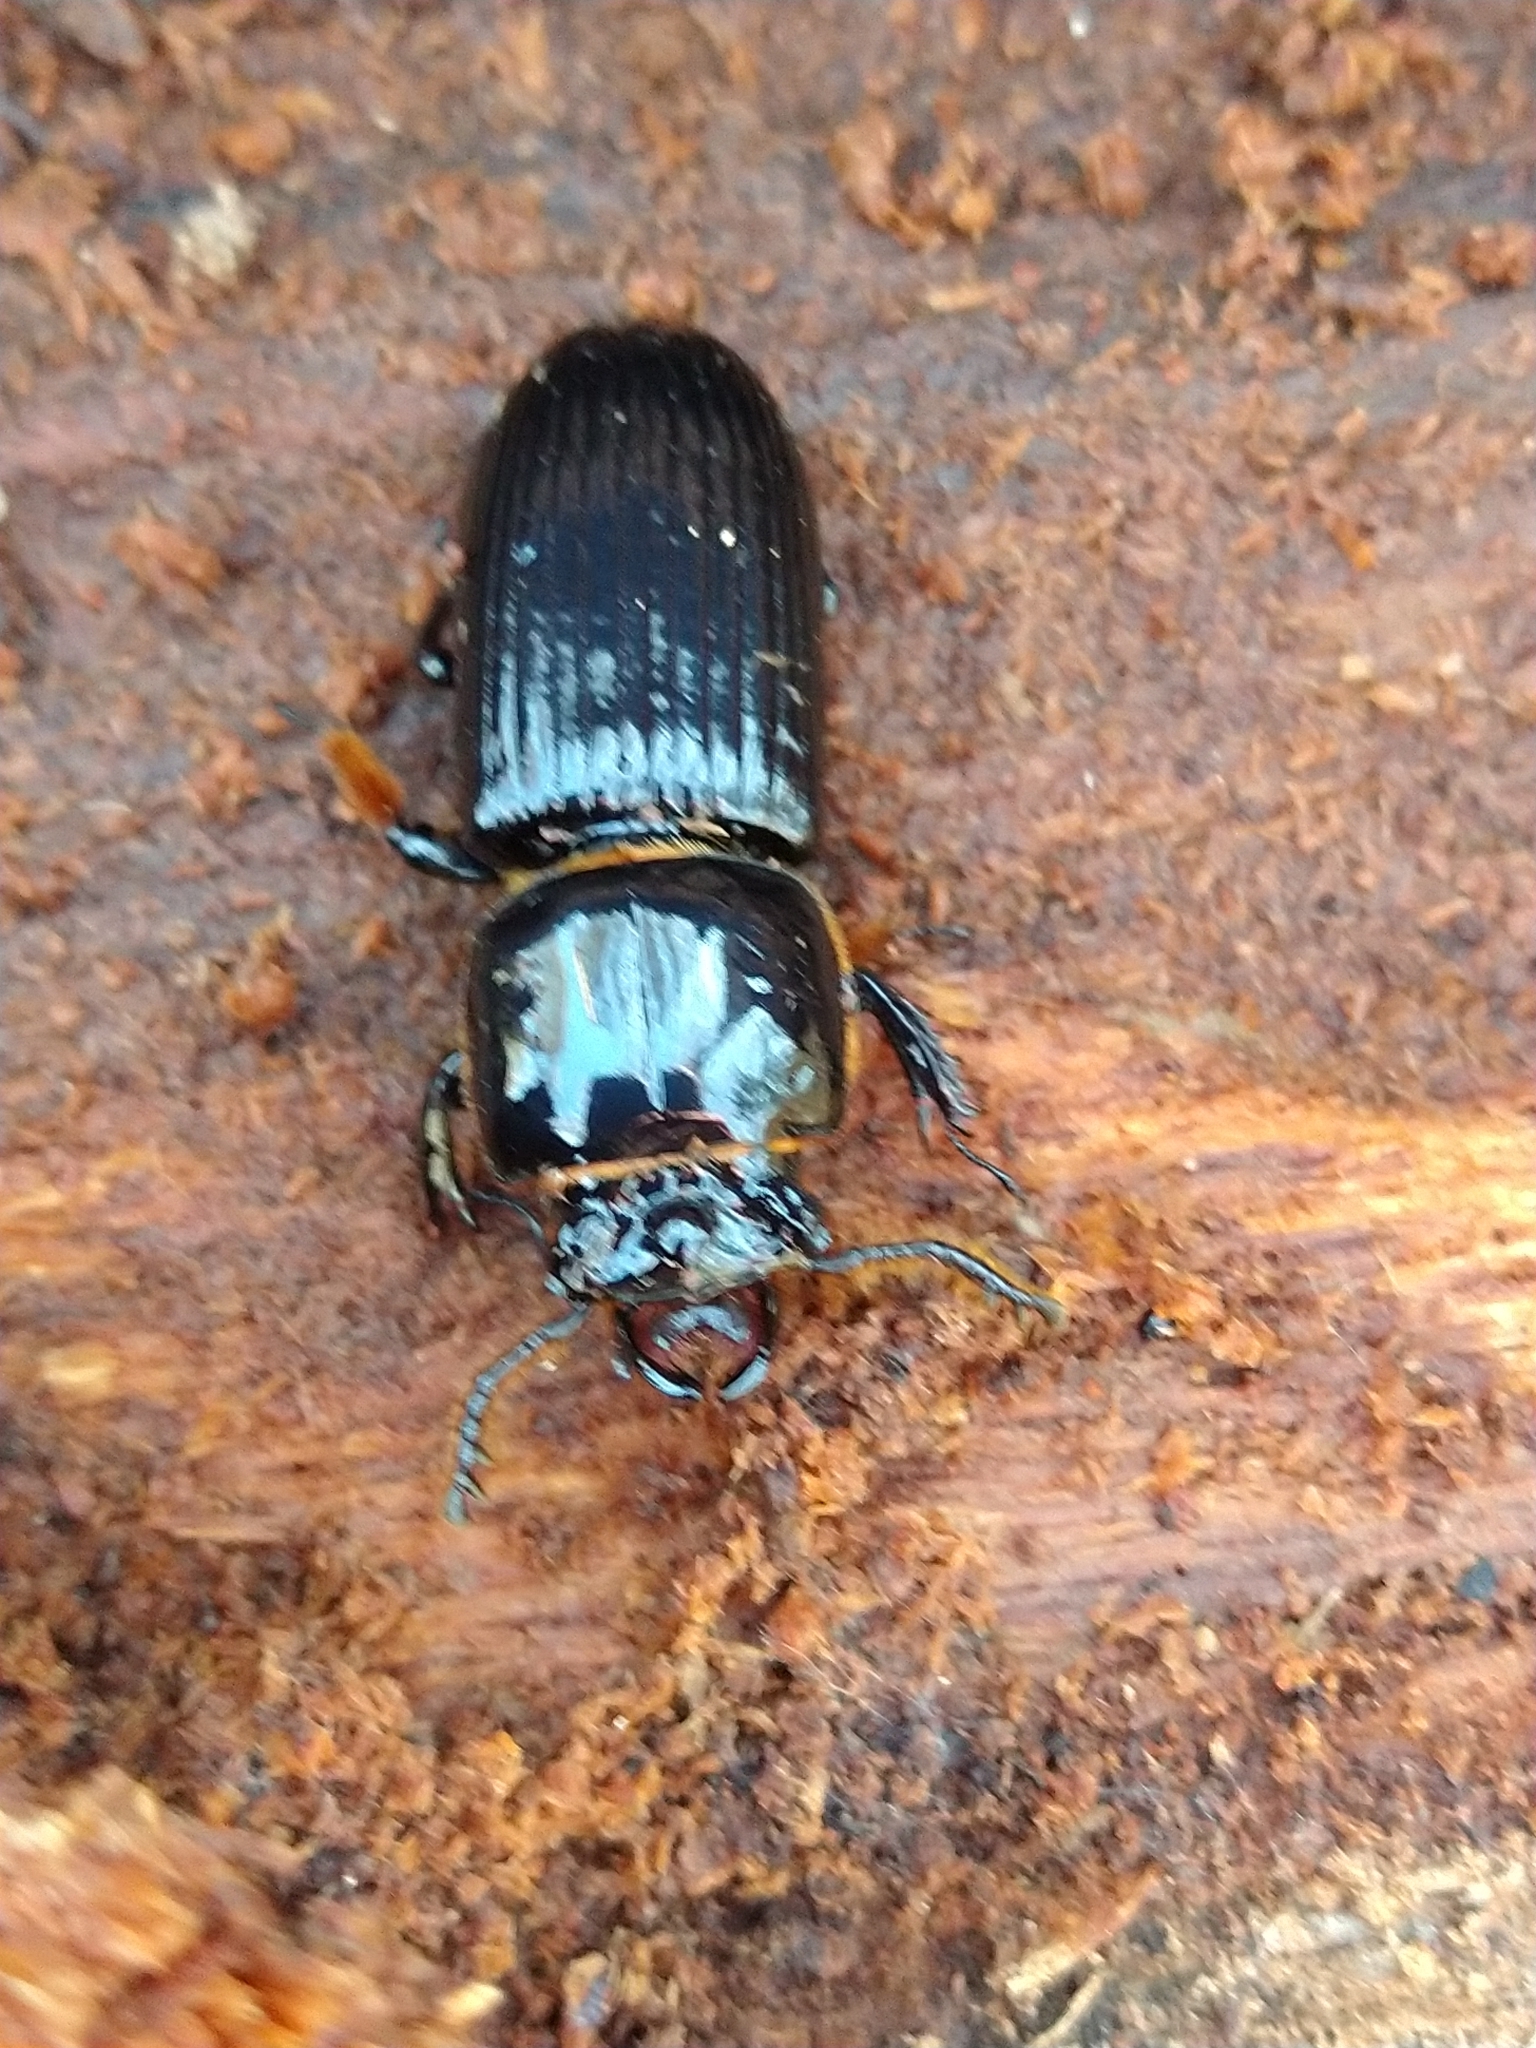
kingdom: Animalia
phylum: Arthropoda
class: Insecta
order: Coleoptera
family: Passalidae
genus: Odontotaenius
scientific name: Odontotaenius disjunctus
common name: Patent leather beetle
